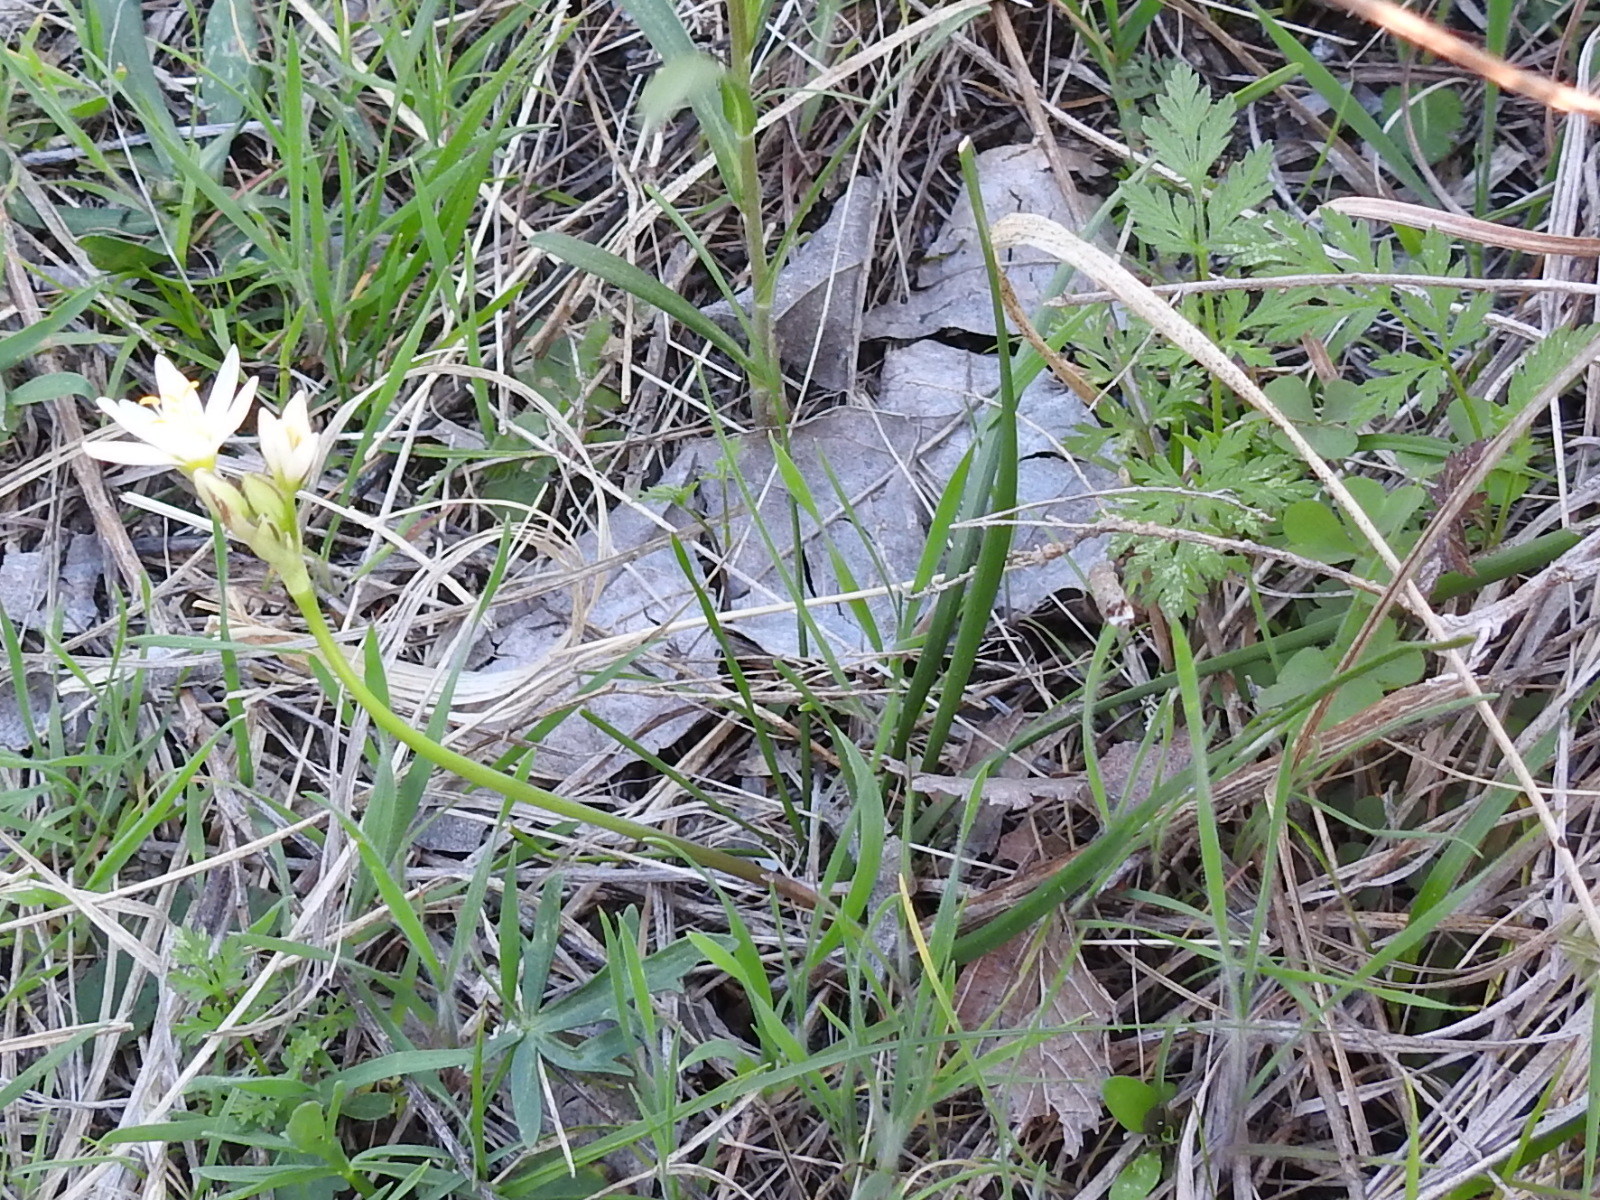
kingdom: Plantae
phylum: Tracheophyta
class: Liliopsida
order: Asparagales
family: Amaryllidaceae
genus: Nothoscordum
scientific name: Nothoscordum bivalve
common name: Crow-poison
